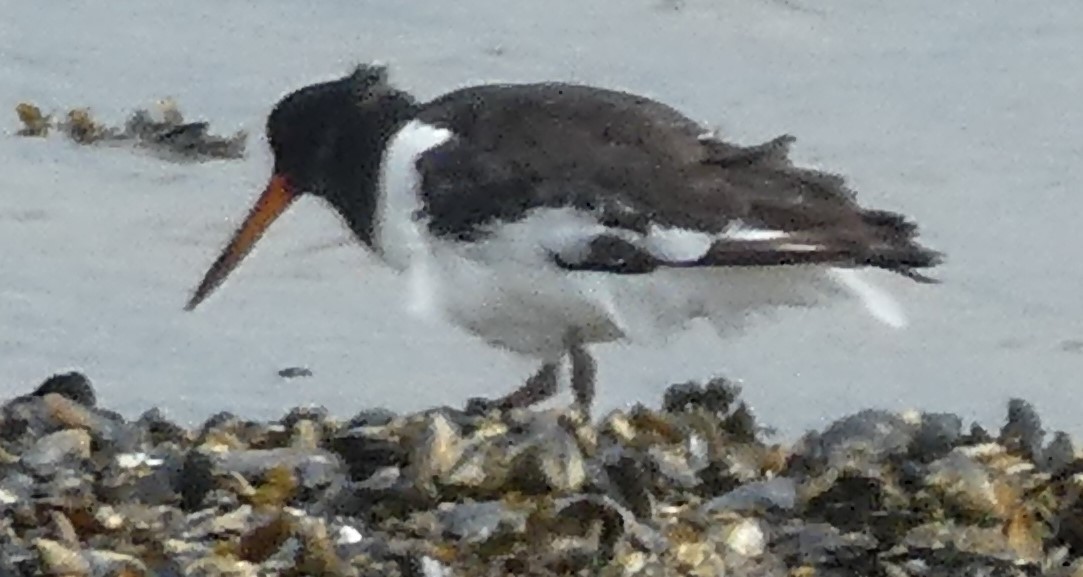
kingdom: Animalia
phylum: Chordata
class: Aves
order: Charadriiformes
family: Haematopodidae
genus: Haematopus
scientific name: Haematopus ostralegus
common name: Eurasian oystercatcher
